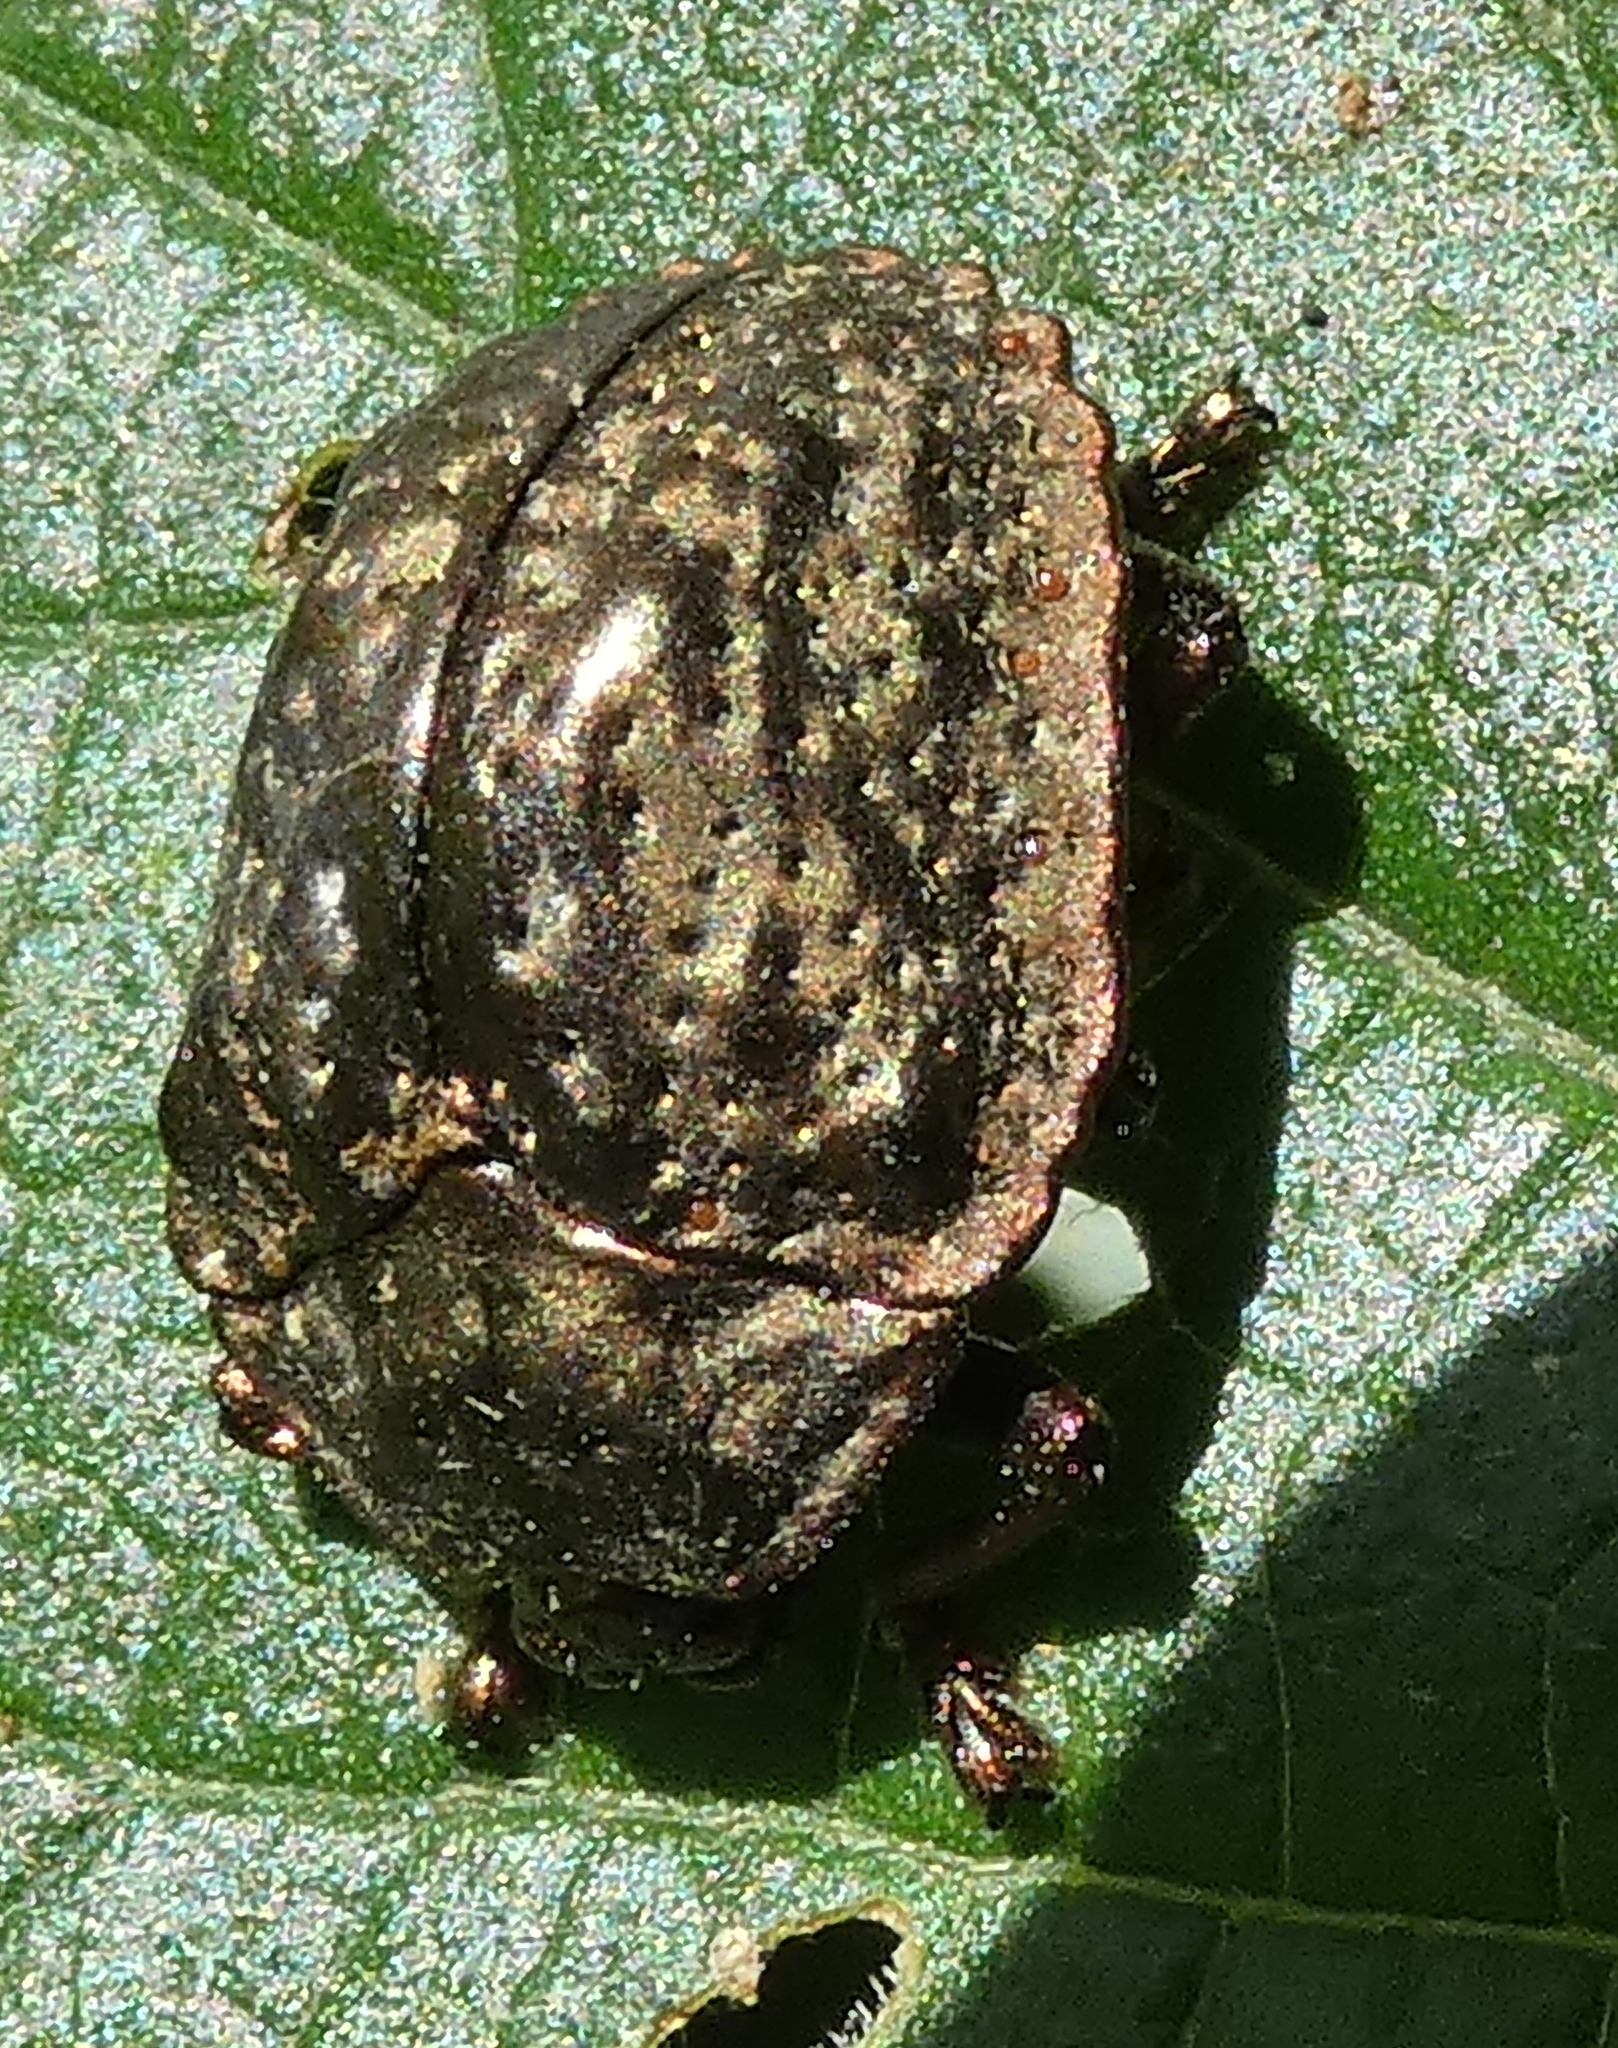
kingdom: Animalia
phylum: Arthropoda
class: Insecta
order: Coleoptera
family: Chrysomelidae
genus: Polychalca
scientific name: Polychalca aerea
